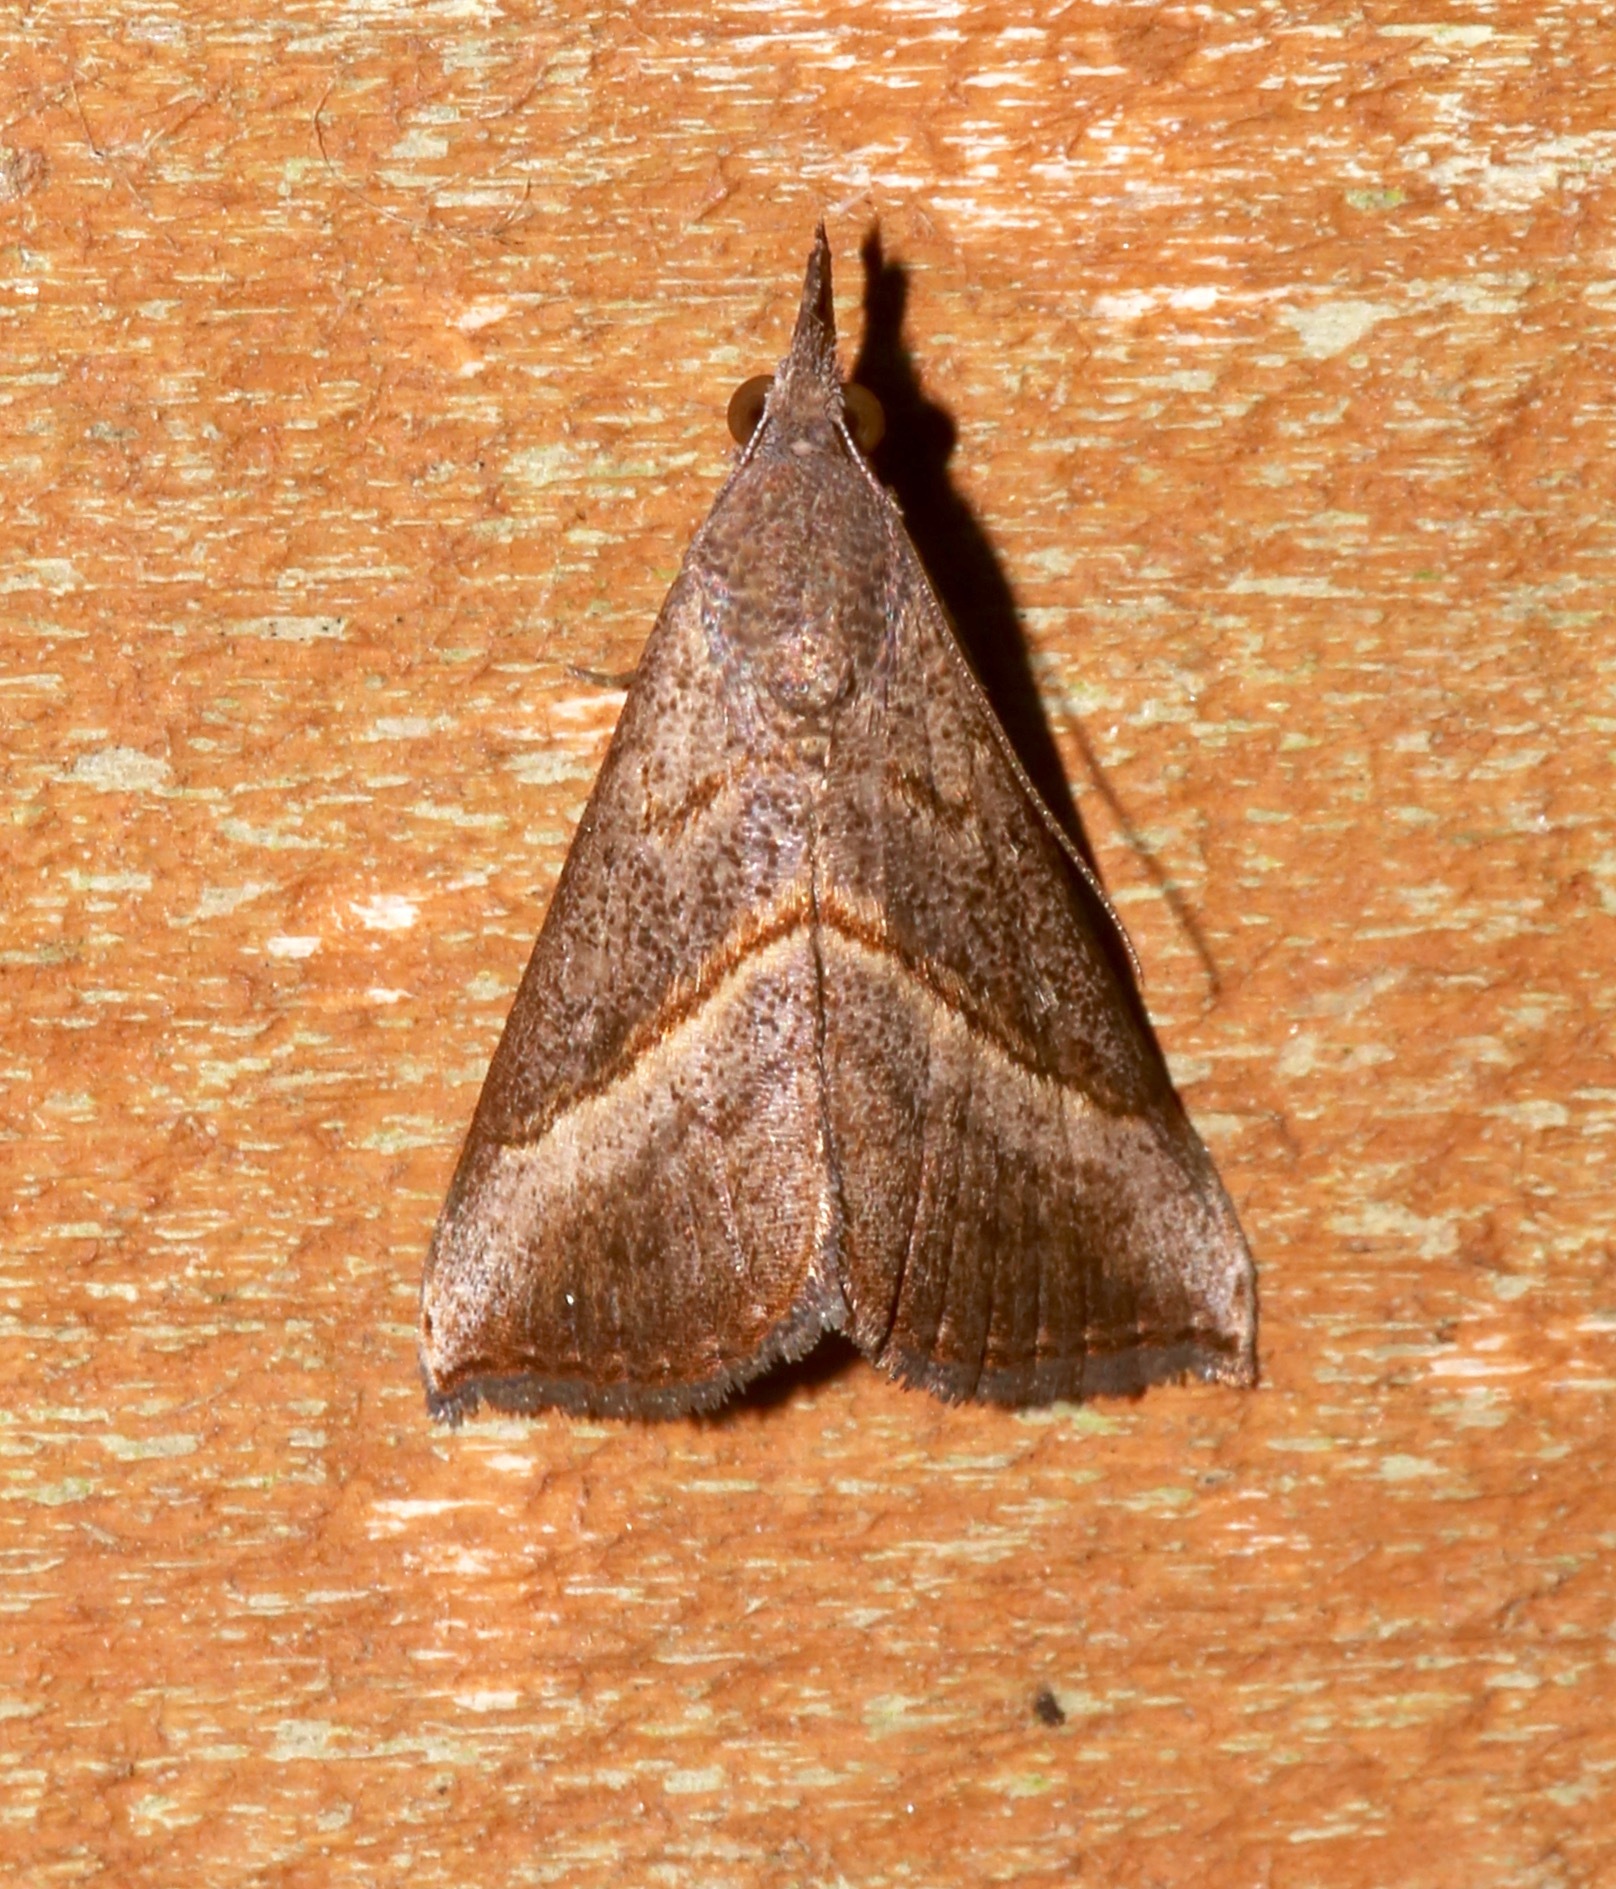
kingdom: Animalia
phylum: Arthropoda
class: Insecta
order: Lepidoptera
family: Erebidae
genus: Hypena
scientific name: Hypena degesalis
